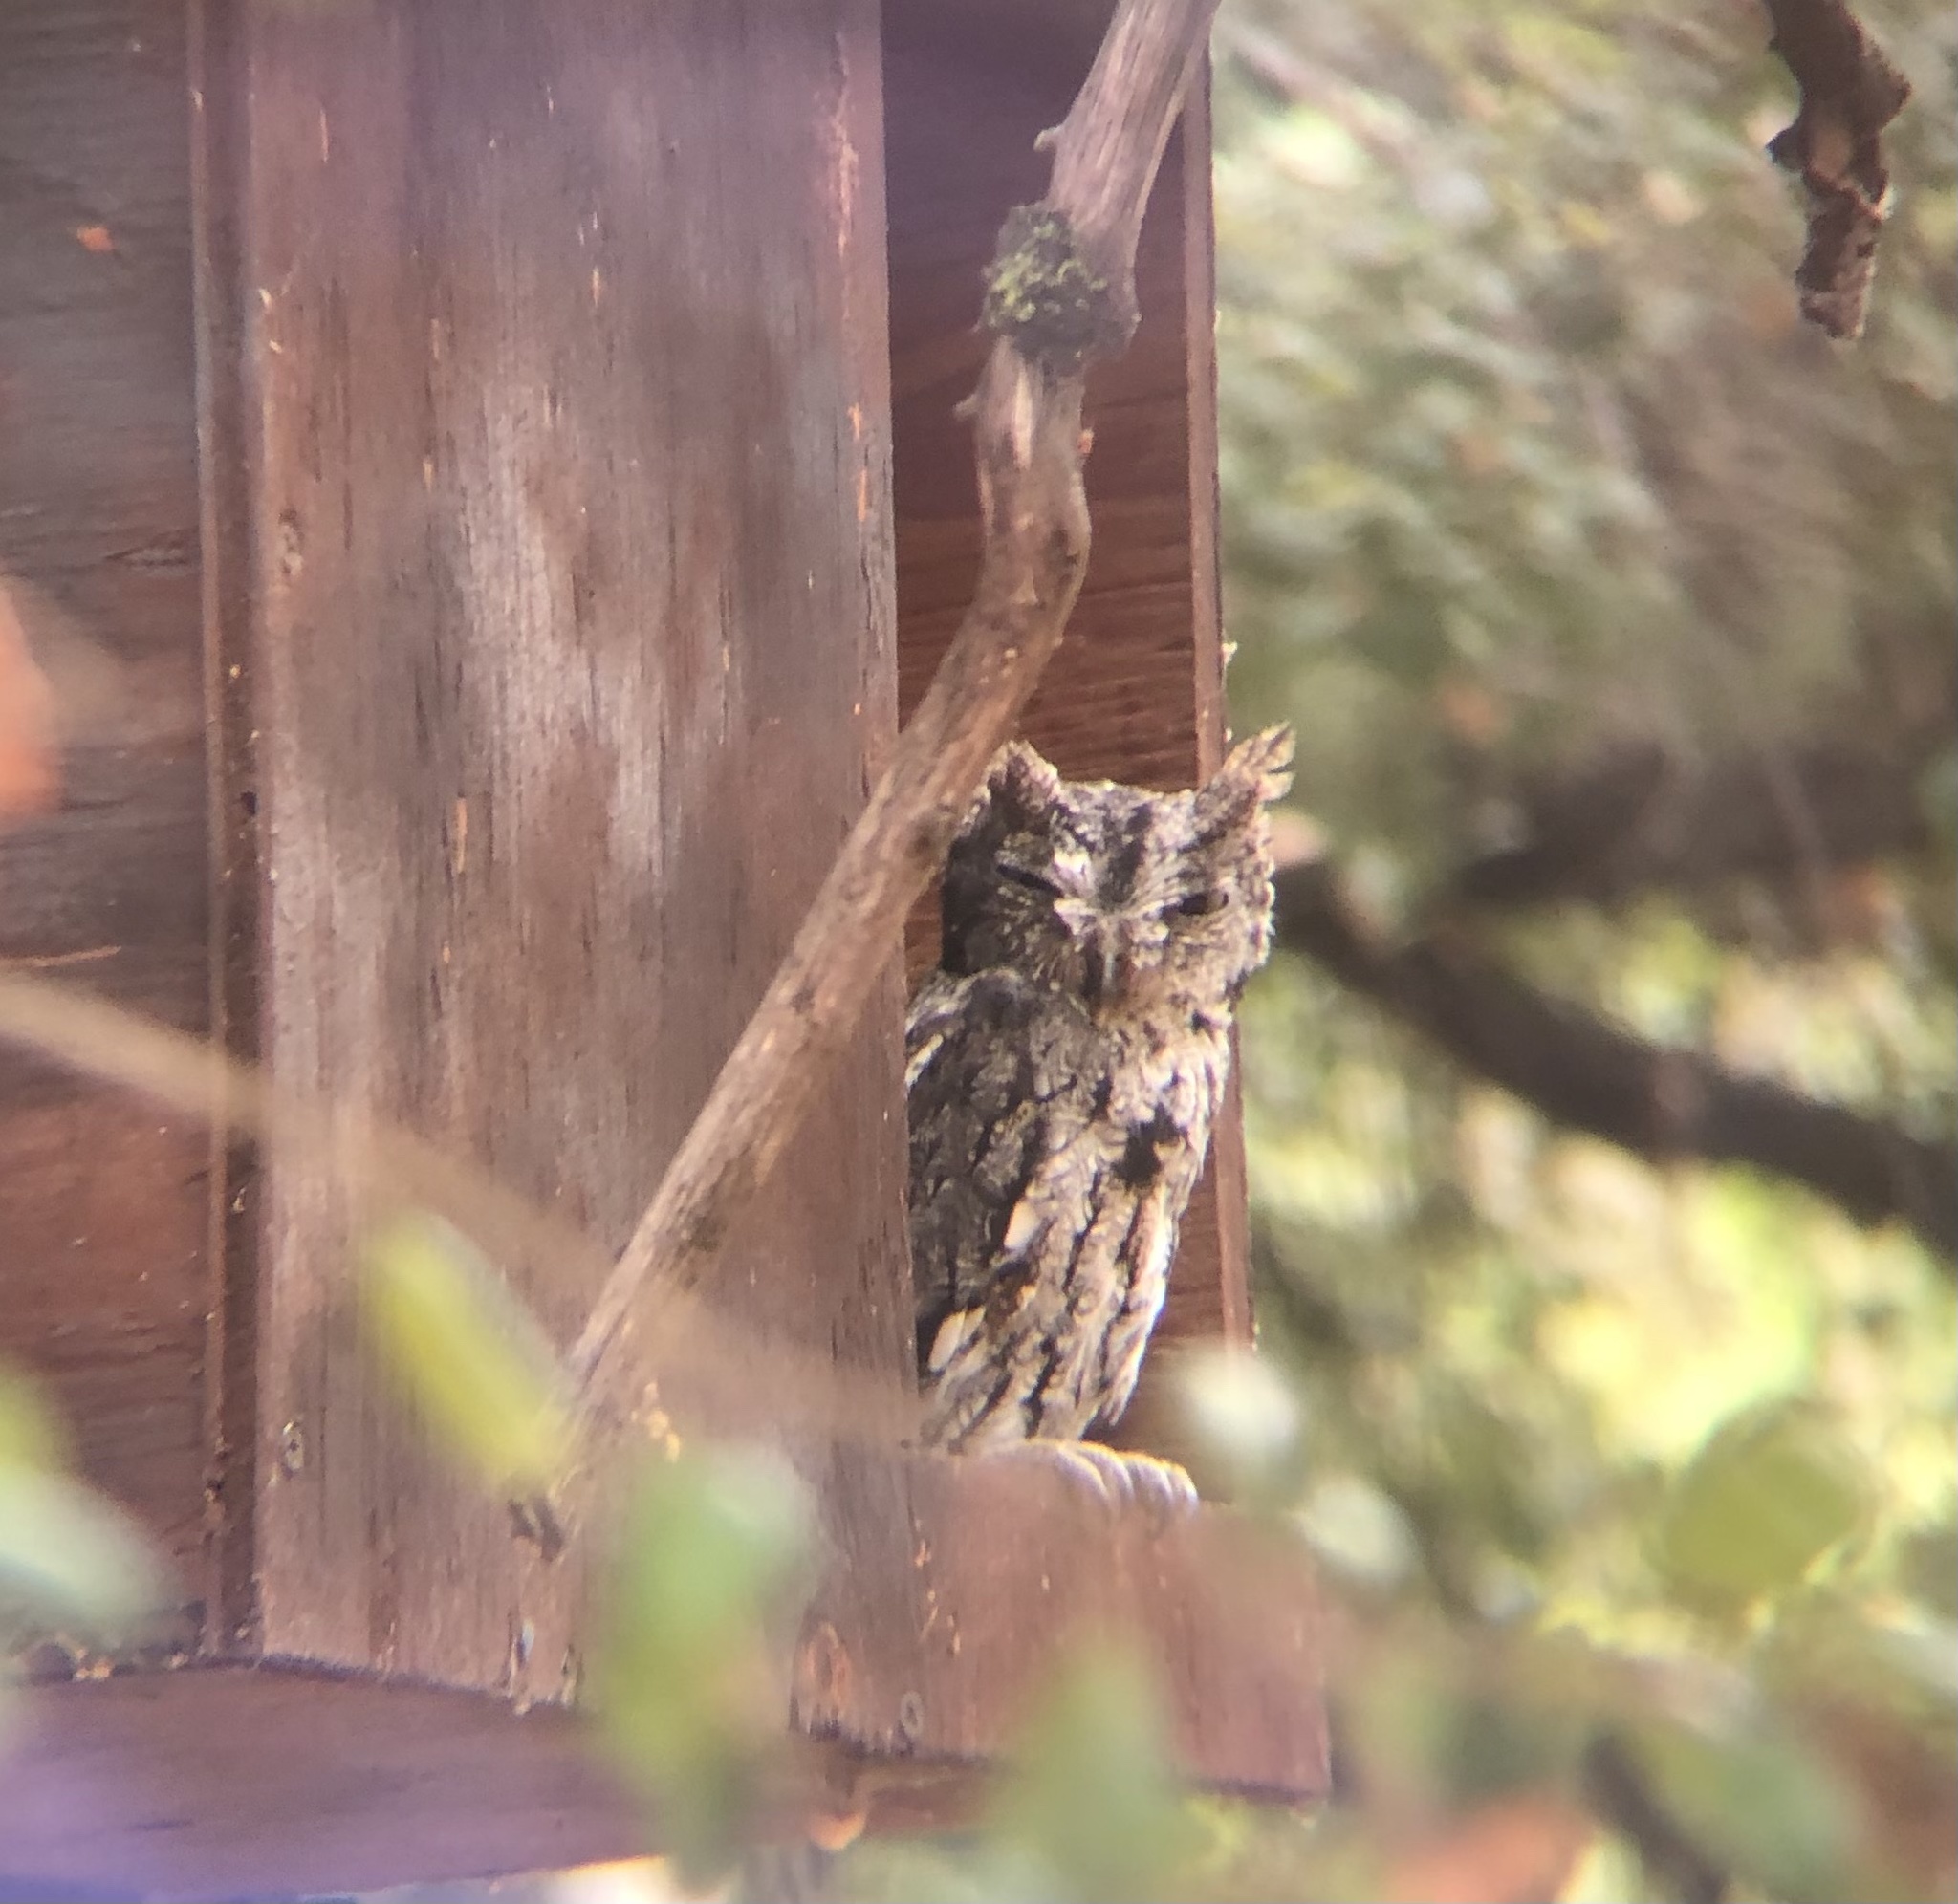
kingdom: Animalia
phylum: Chordata
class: Aves
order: Strigiformes
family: Strigidae
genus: Megascops
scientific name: Megascops kennicottii
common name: Western screech-owl
